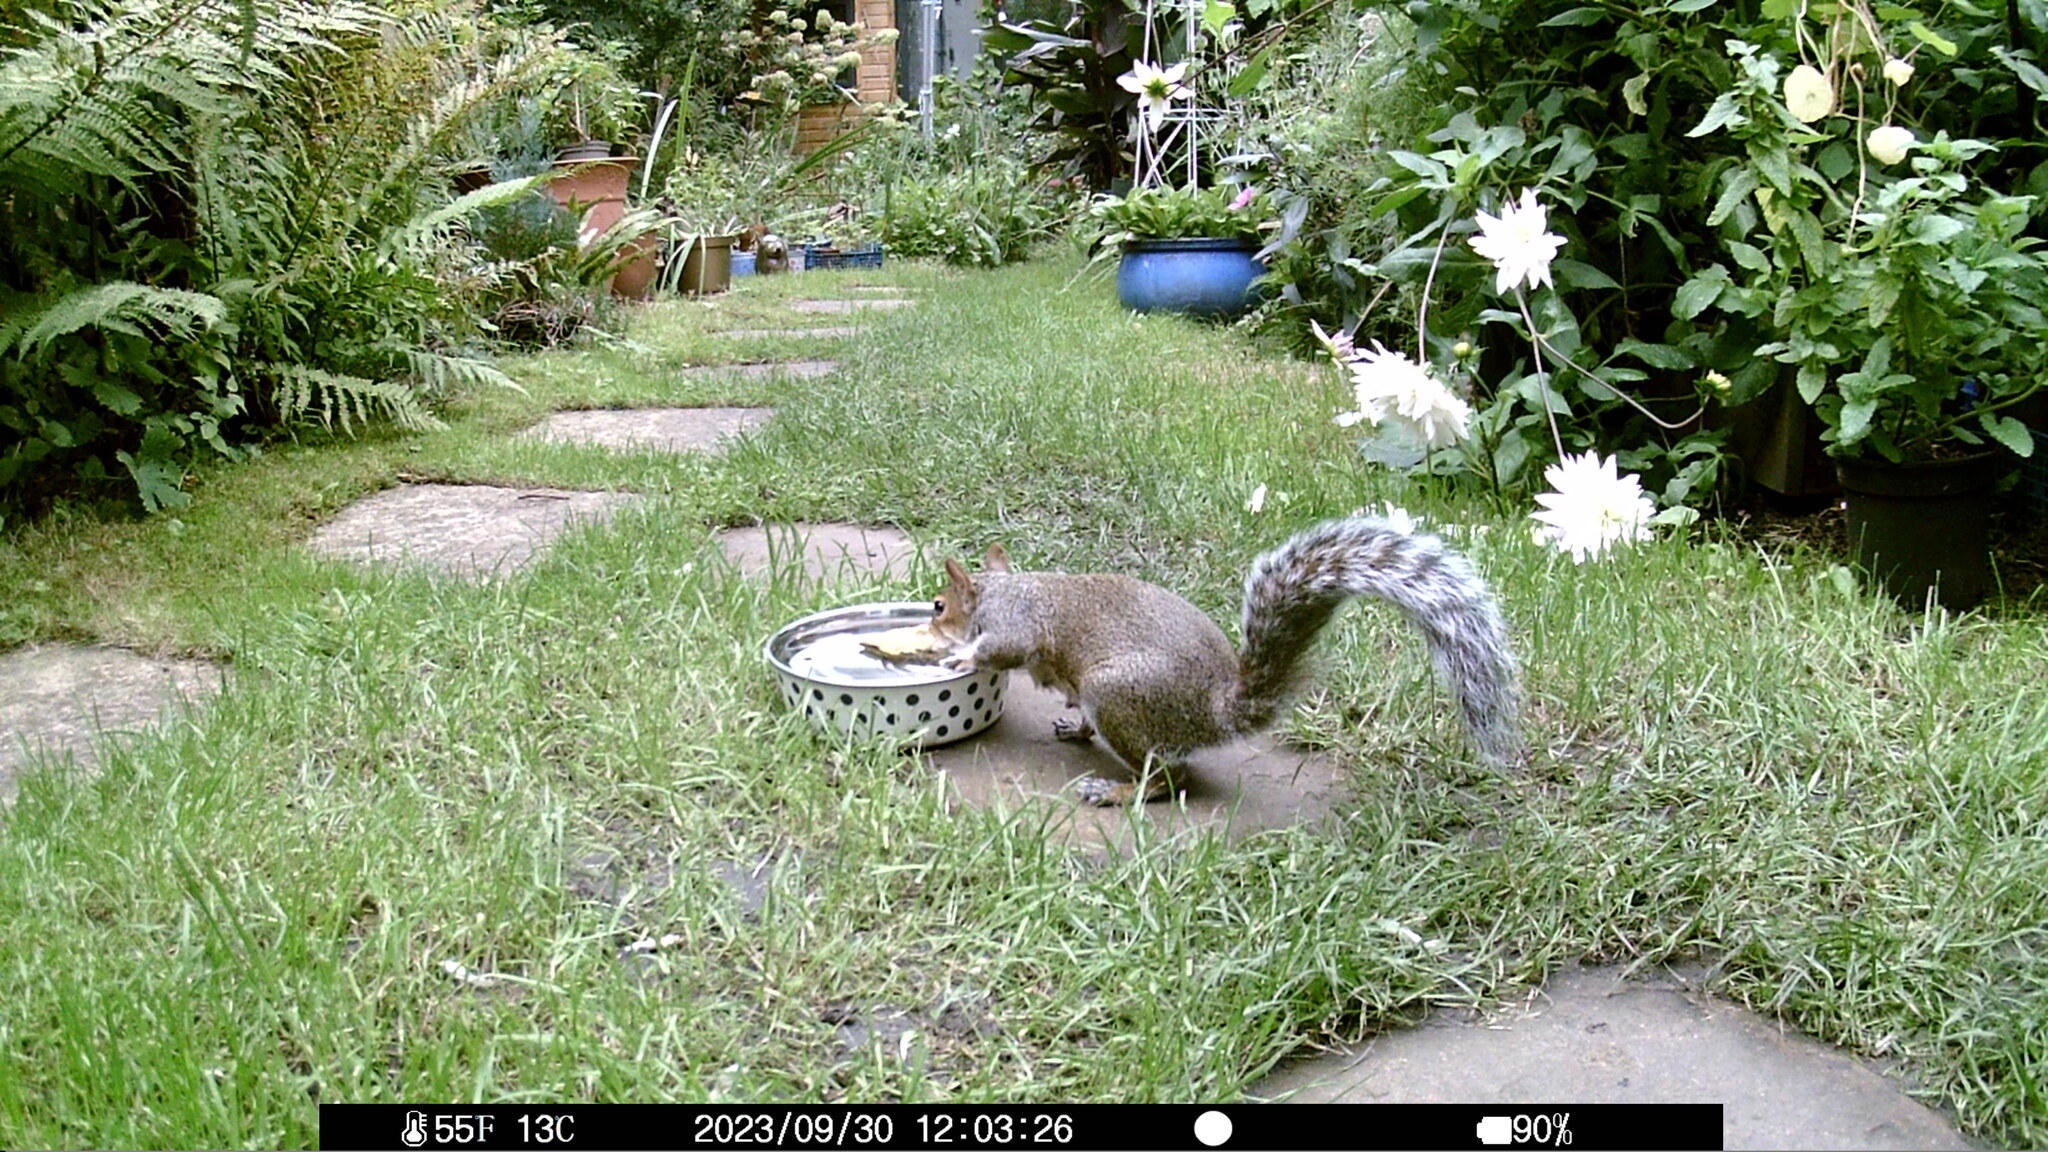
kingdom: Animalia
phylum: Chordata
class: Mammalia
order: Rodentia
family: Sciuridae
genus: Sciurus
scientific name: Sciurus carolinensis
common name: Eastern gray squirrel
